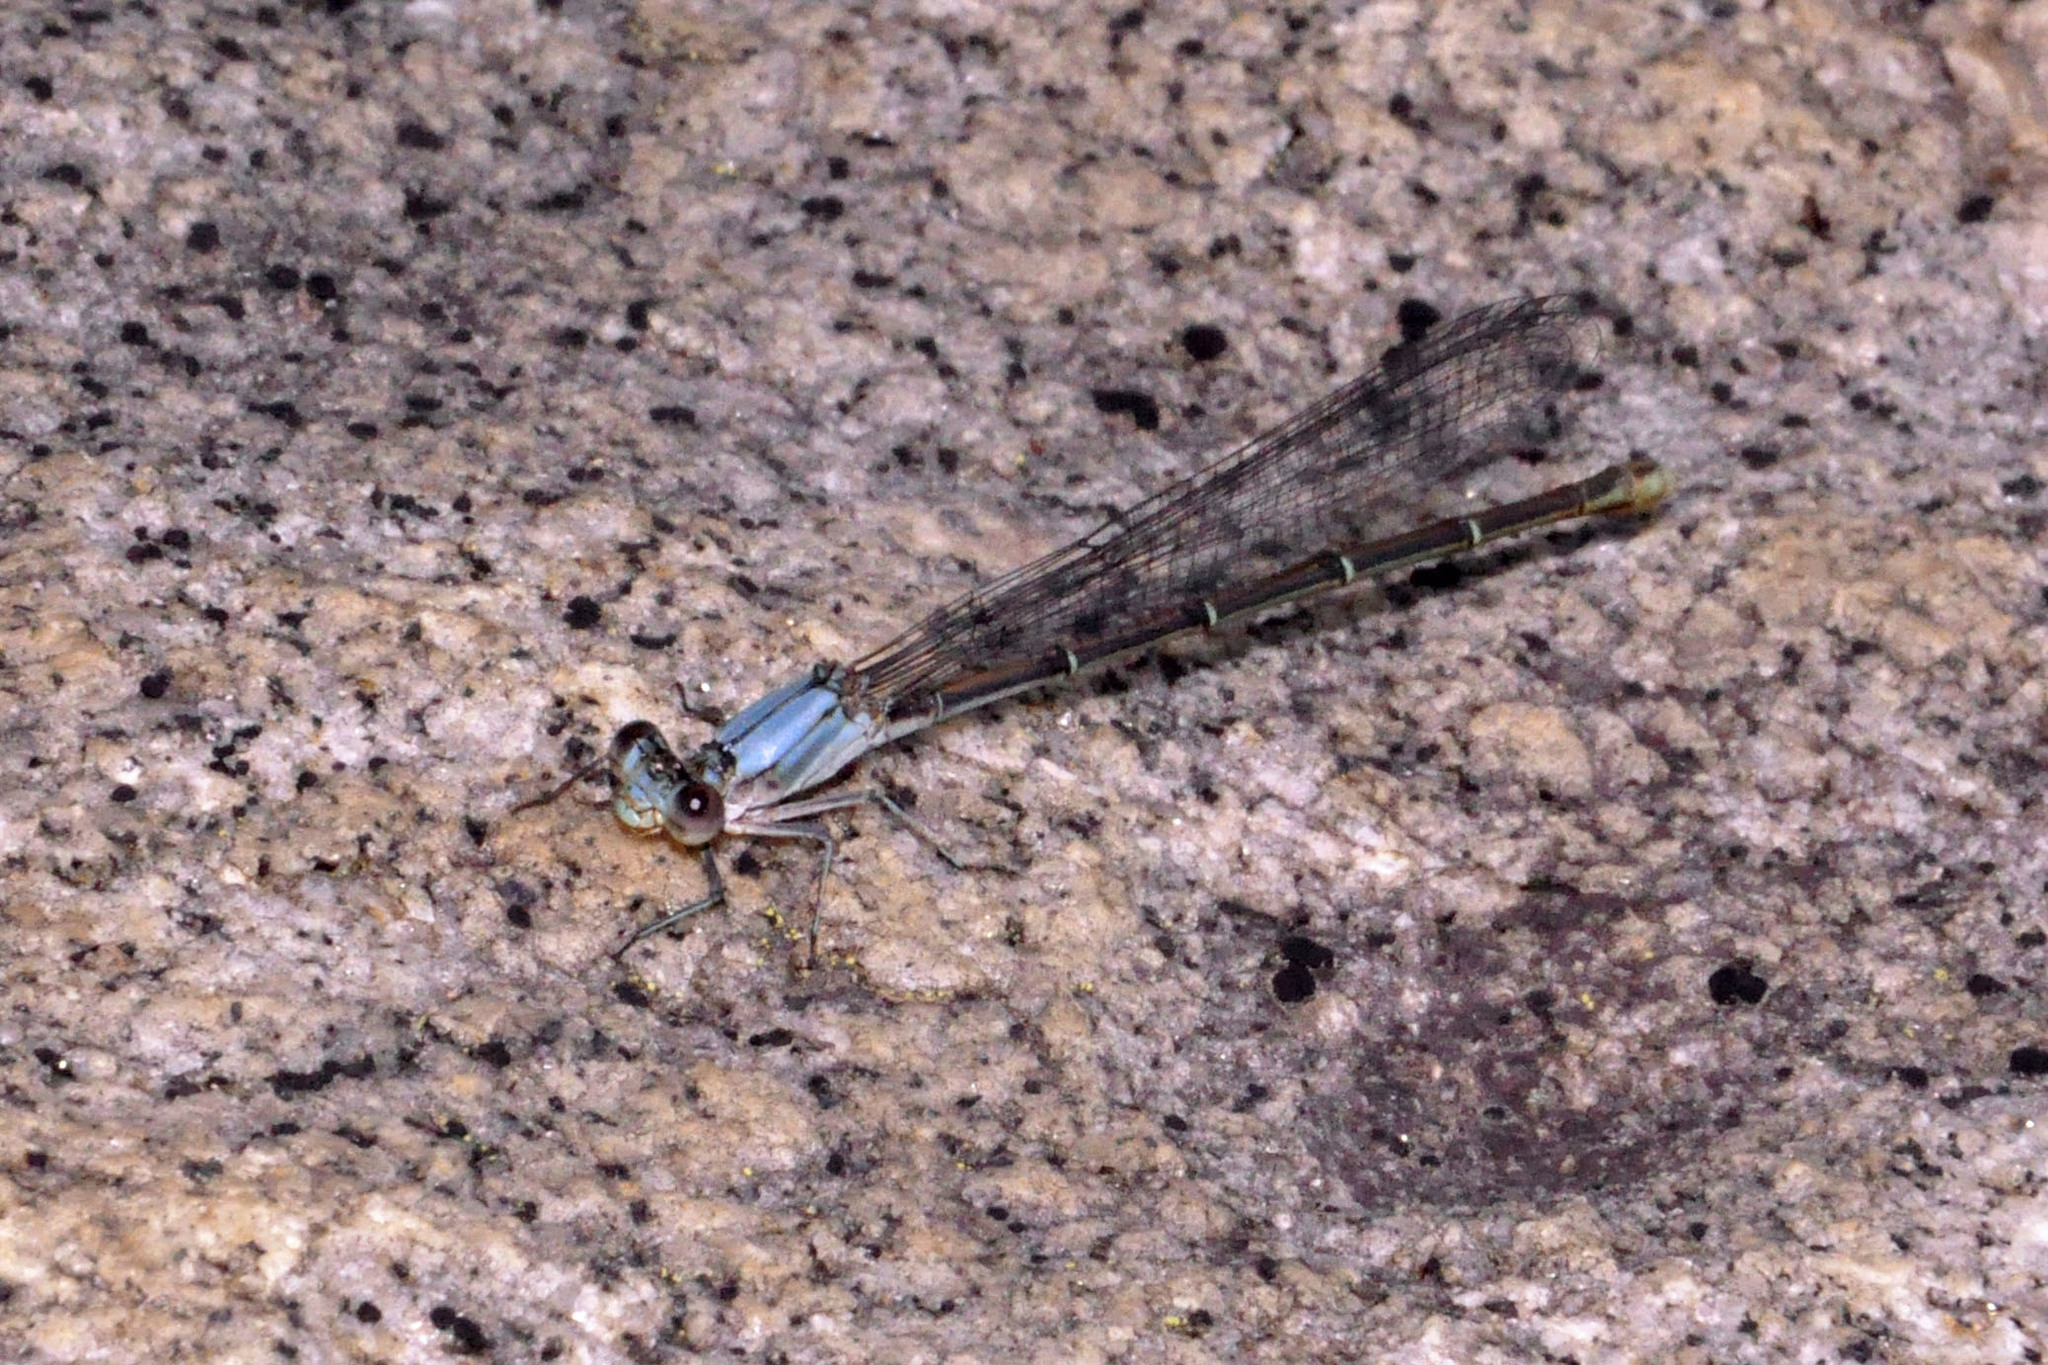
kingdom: Animalia
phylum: Arthropoda
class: Insecta
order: Odonata
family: Coenagrionidae
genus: Argia
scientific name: Argia moesta
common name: Powdered dancer
